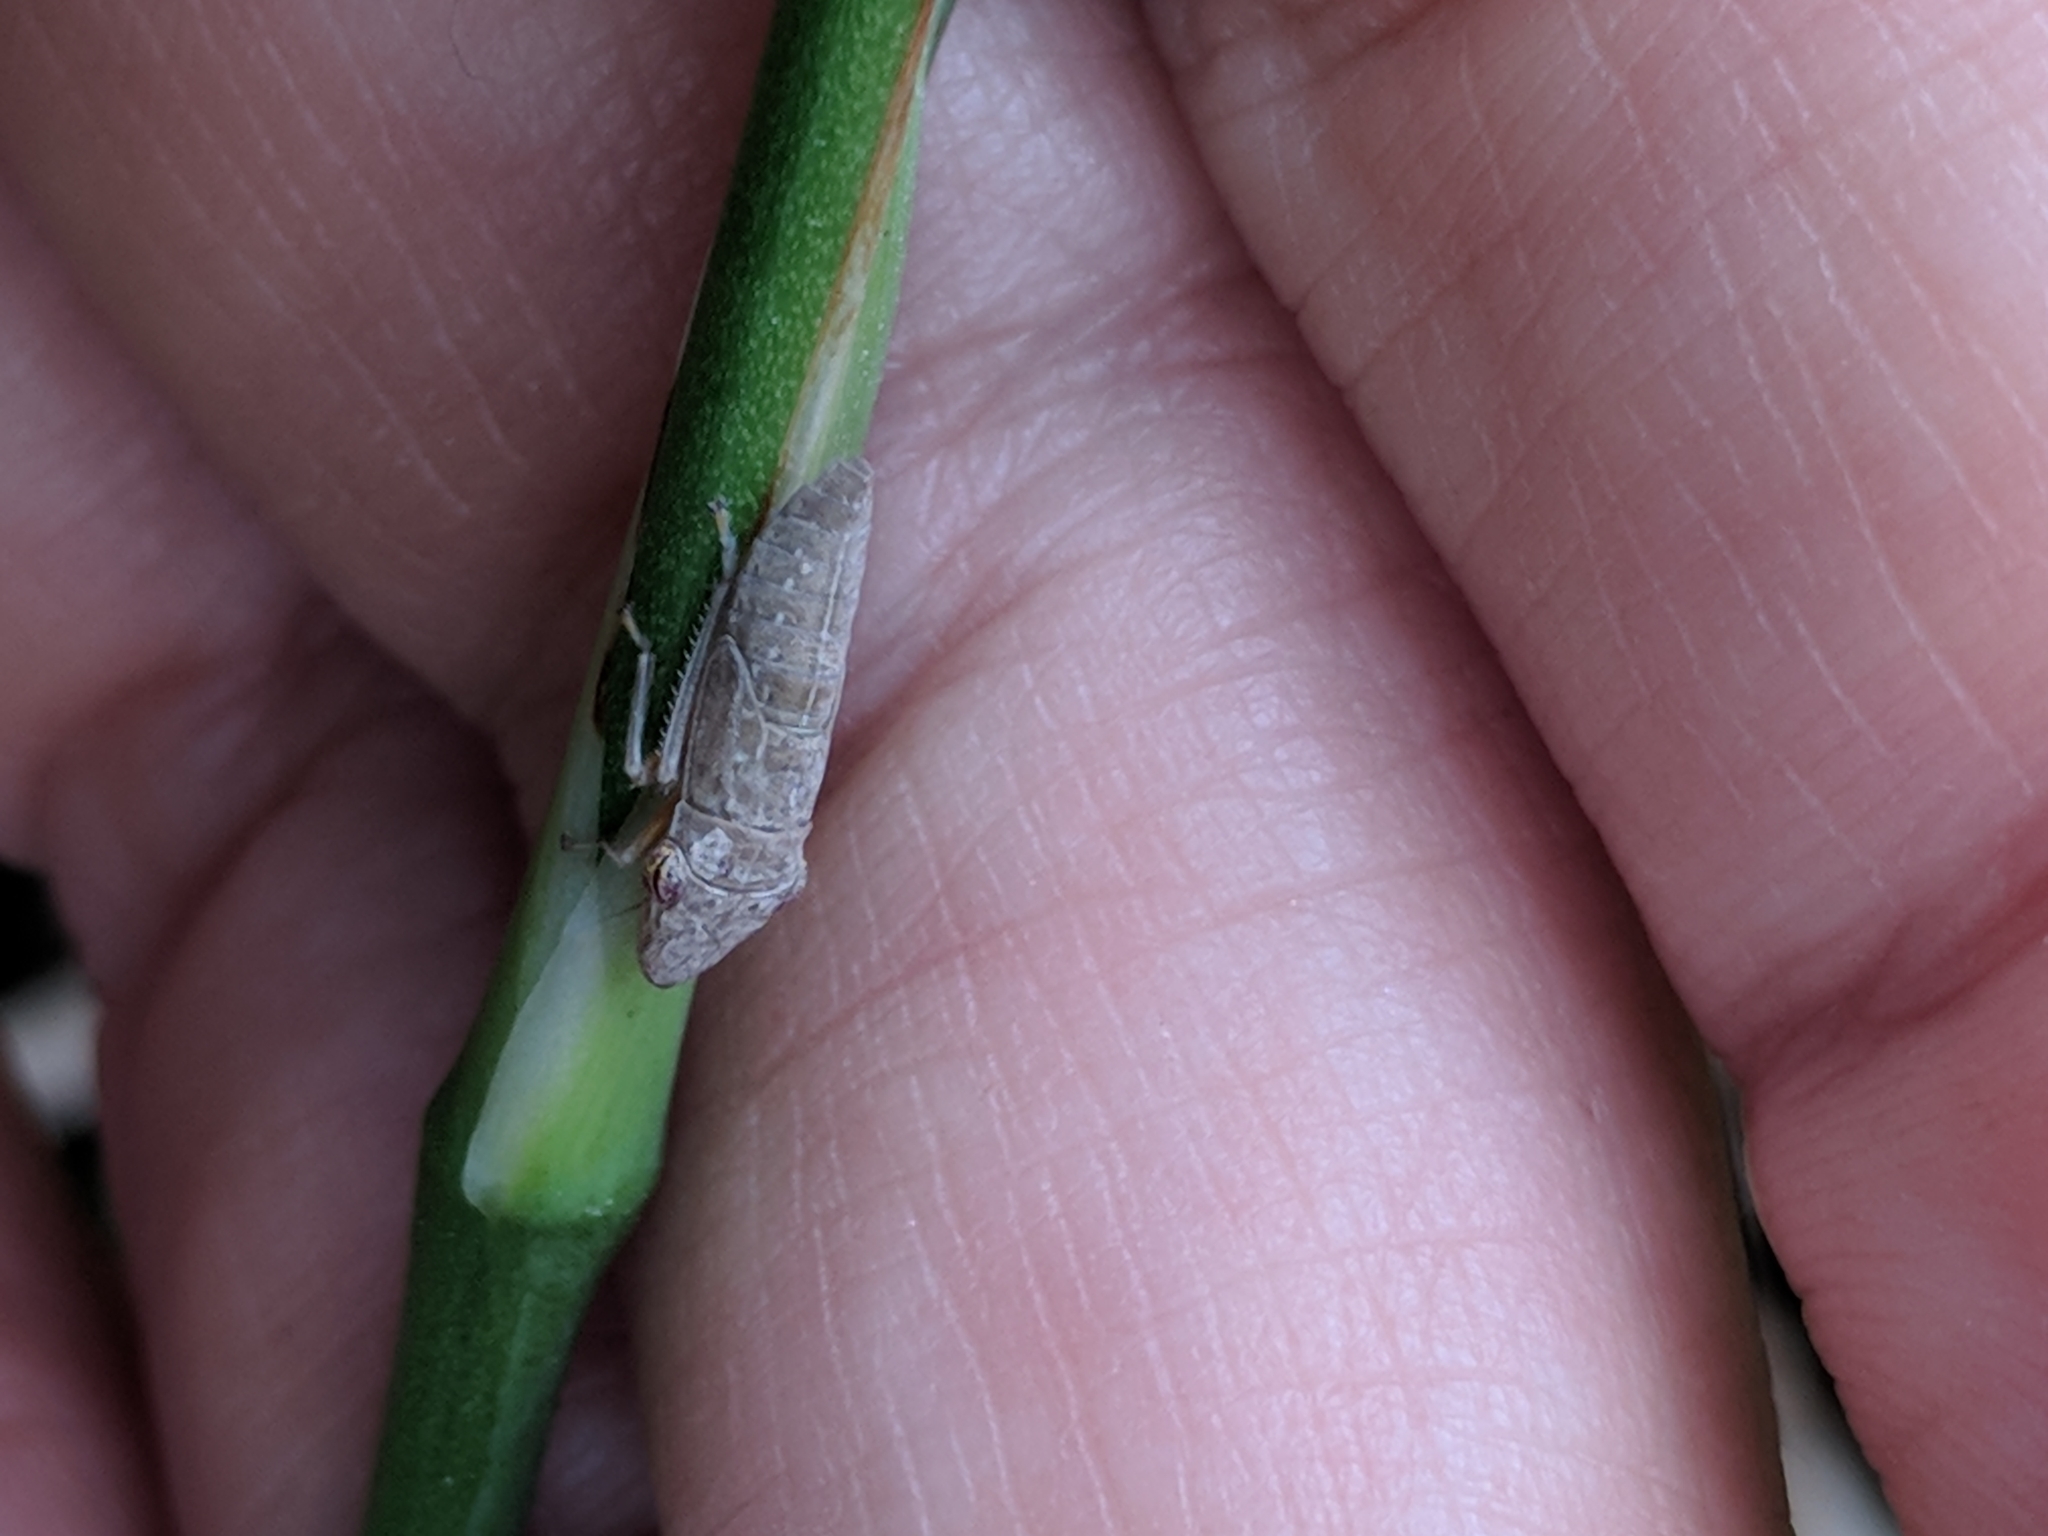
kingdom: Animalia
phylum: Arthropoda
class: Insecta
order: Hemiptera
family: Cicadellidae
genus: Homalodisca
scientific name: Homalodisca
